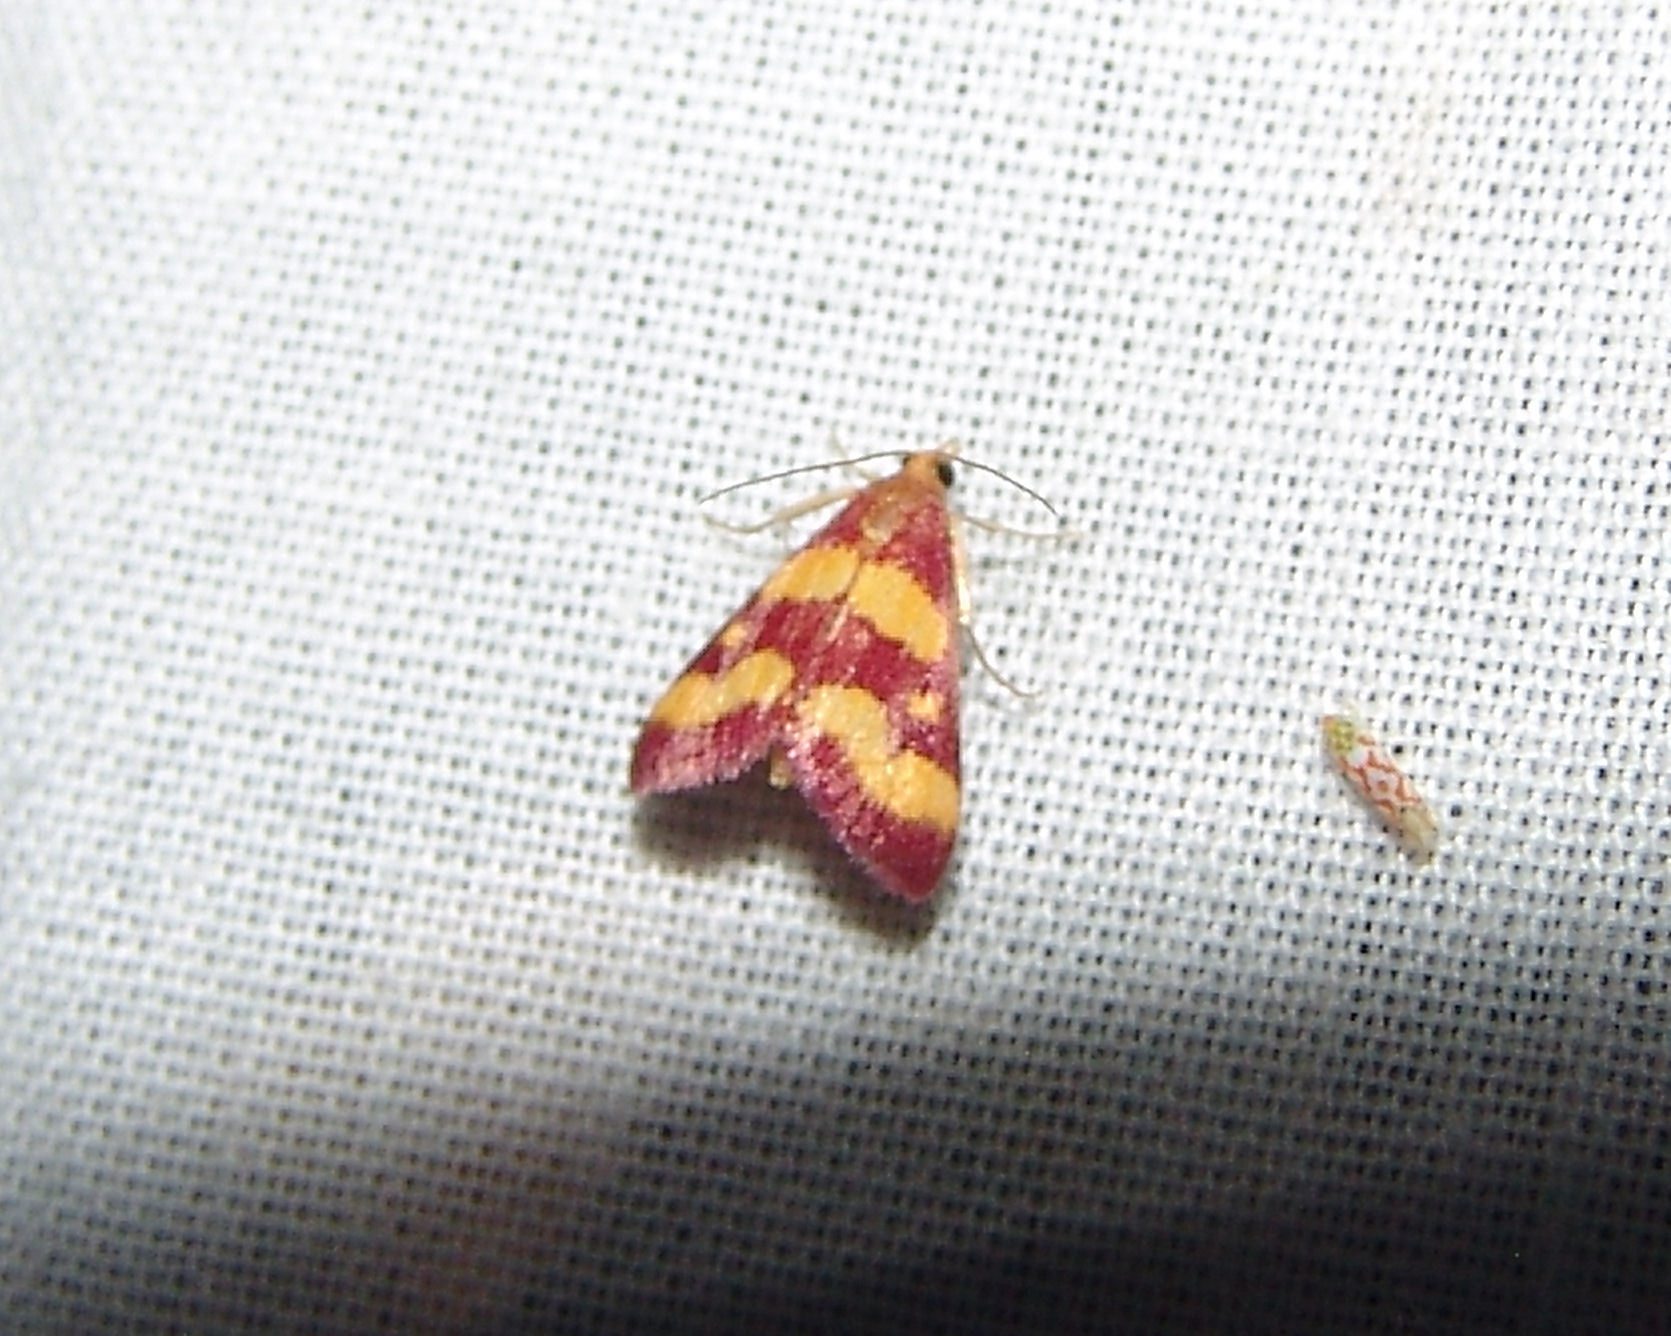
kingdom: Animalia
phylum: Arthropoda
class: Insecta
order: Lepidoptera
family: Crambidae
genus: Pyrausta
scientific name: Pyrausta tyralis
